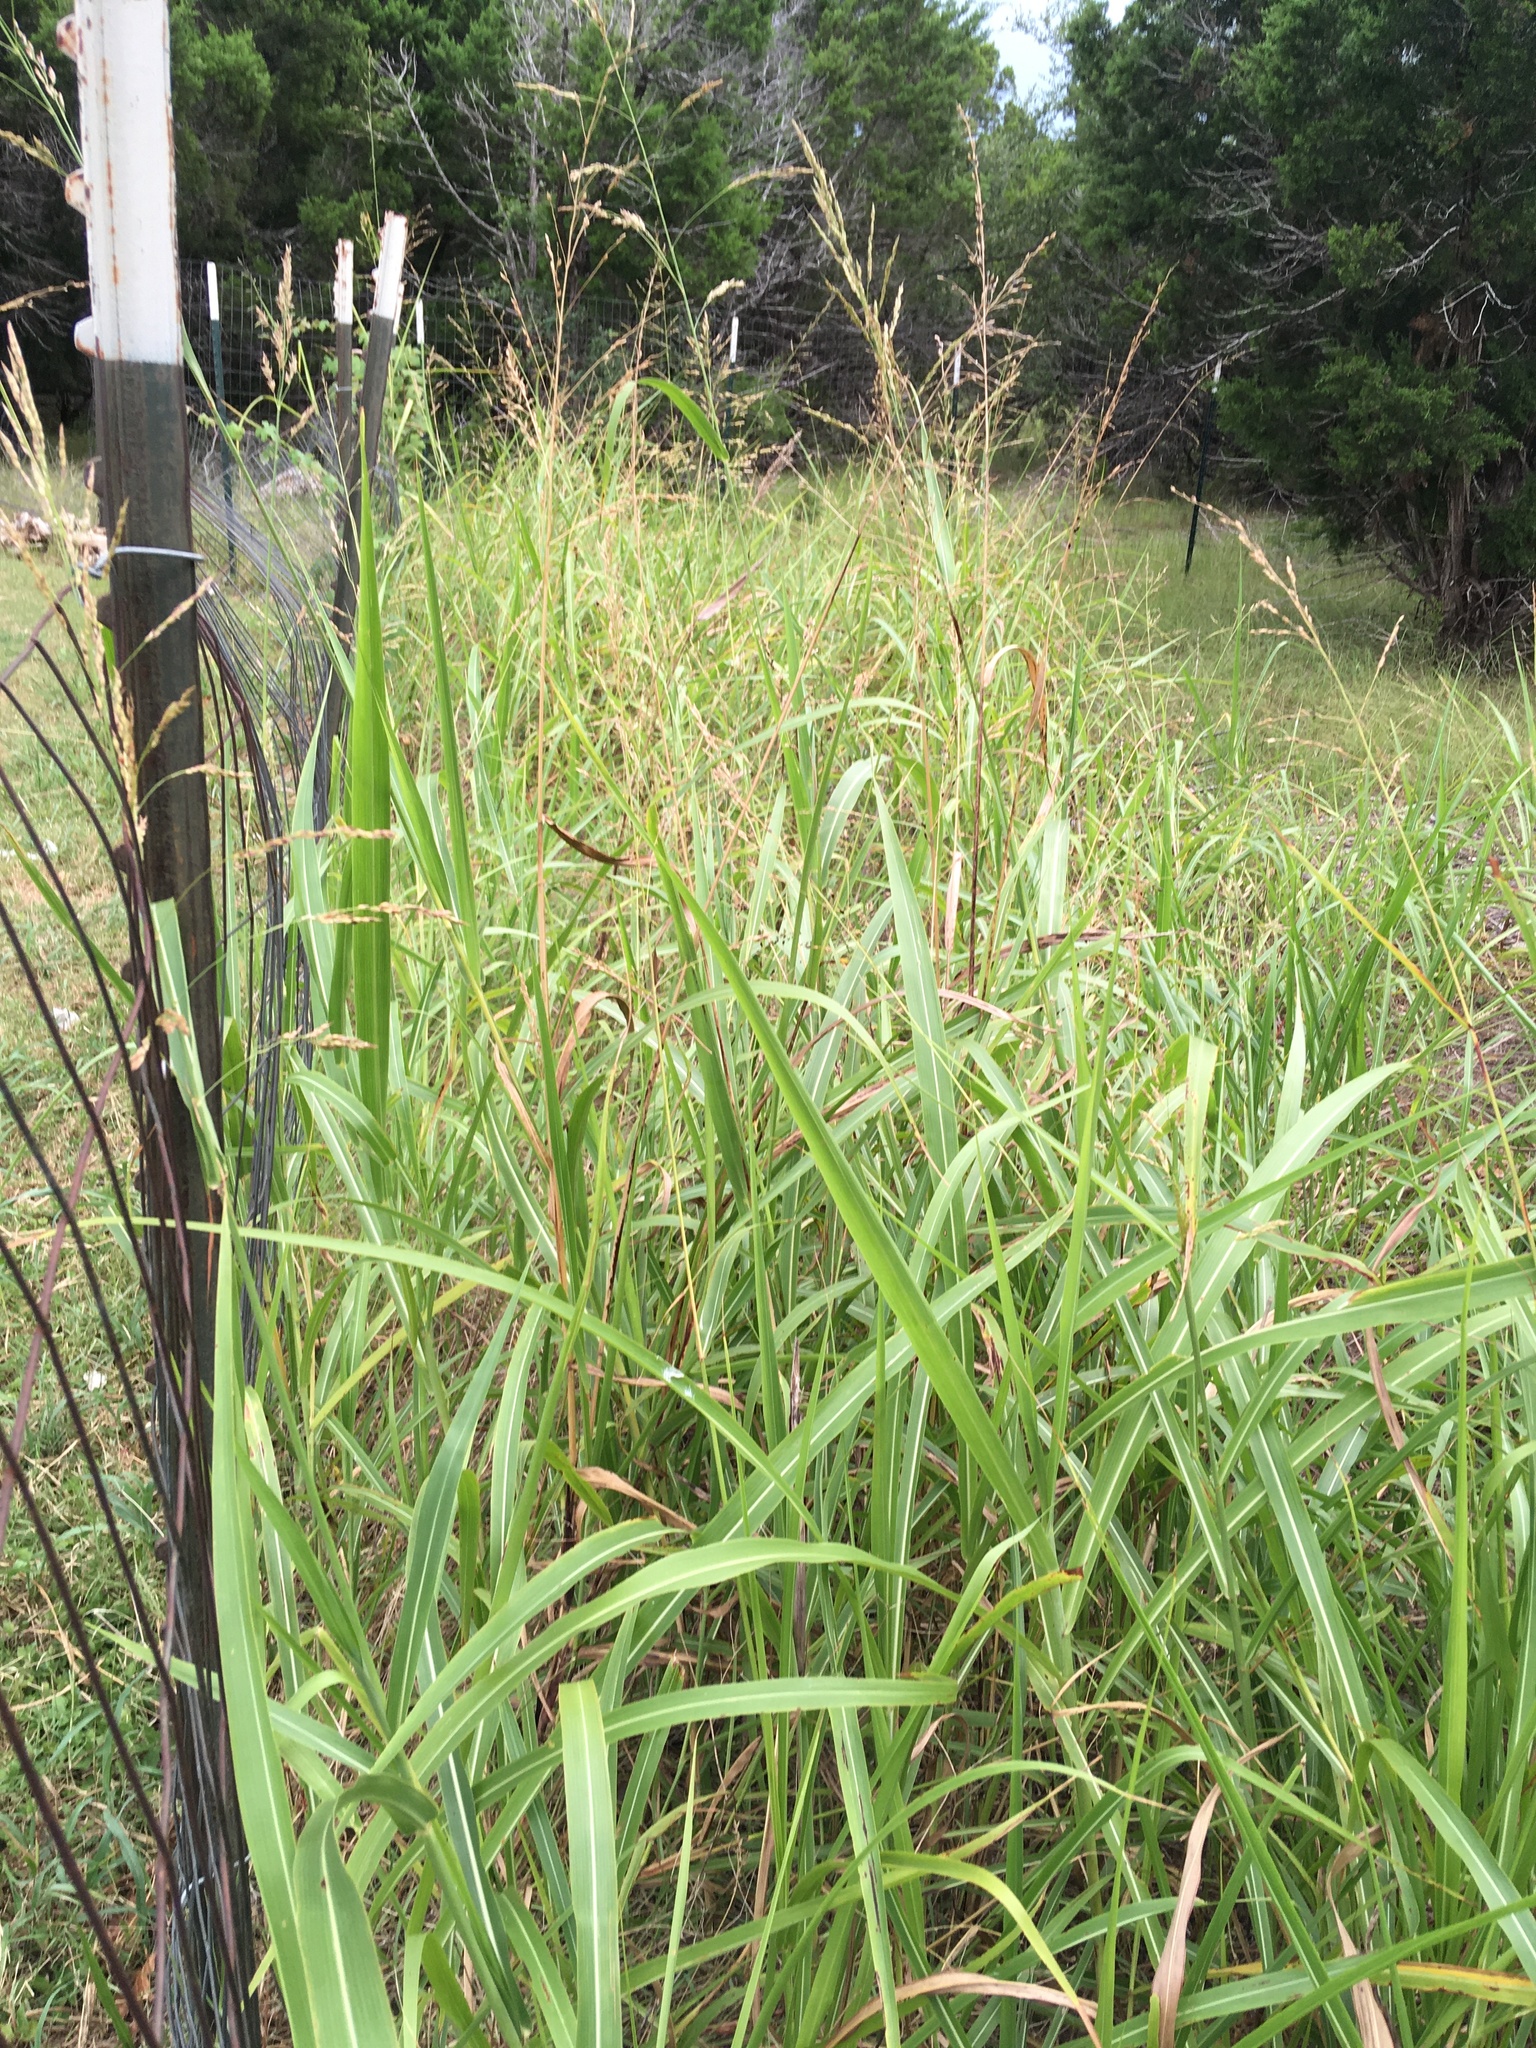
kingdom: Plantae
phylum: Tracheophyta
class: Liliopsida
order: Poales
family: Poaceae
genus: Sorghum
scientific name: Sorghum halepense
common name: Johnson-grass
